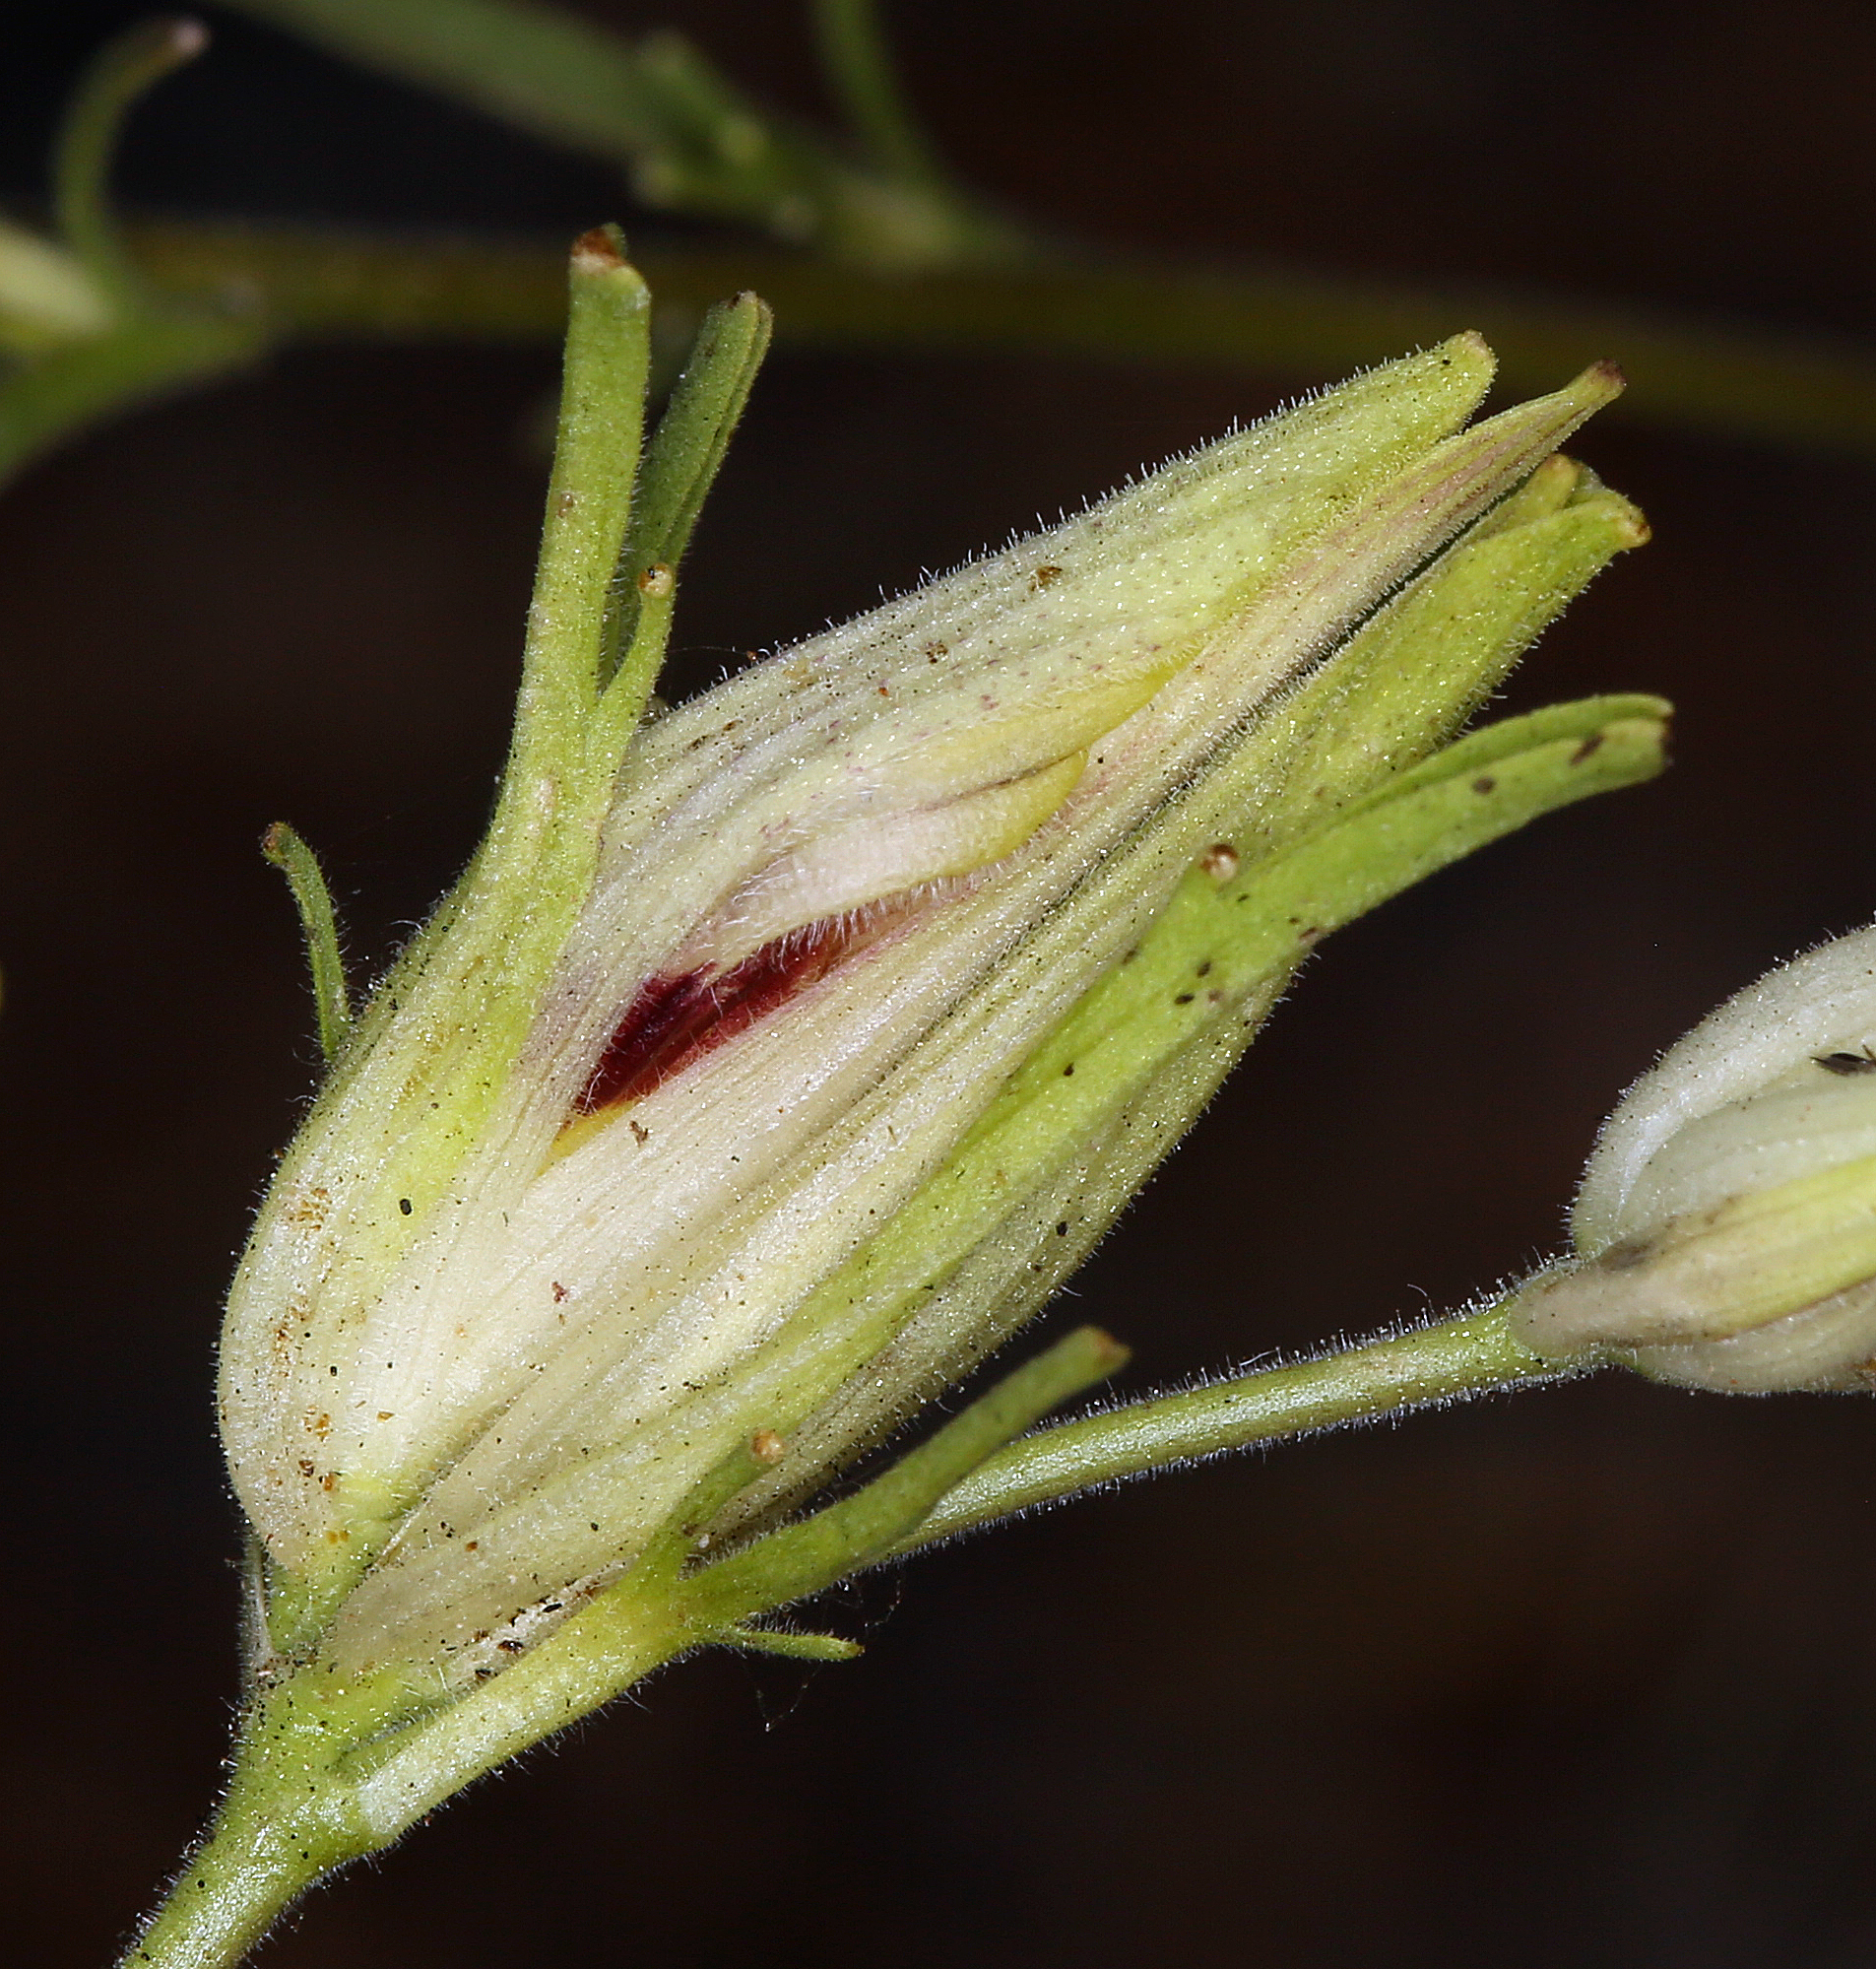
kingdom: Plantae
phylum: Tracheophyta
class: Magnoliopsida
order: Lamiales
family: Orobanchaceae
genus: Cordylanthus
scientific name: Cordylanthus tenuis
